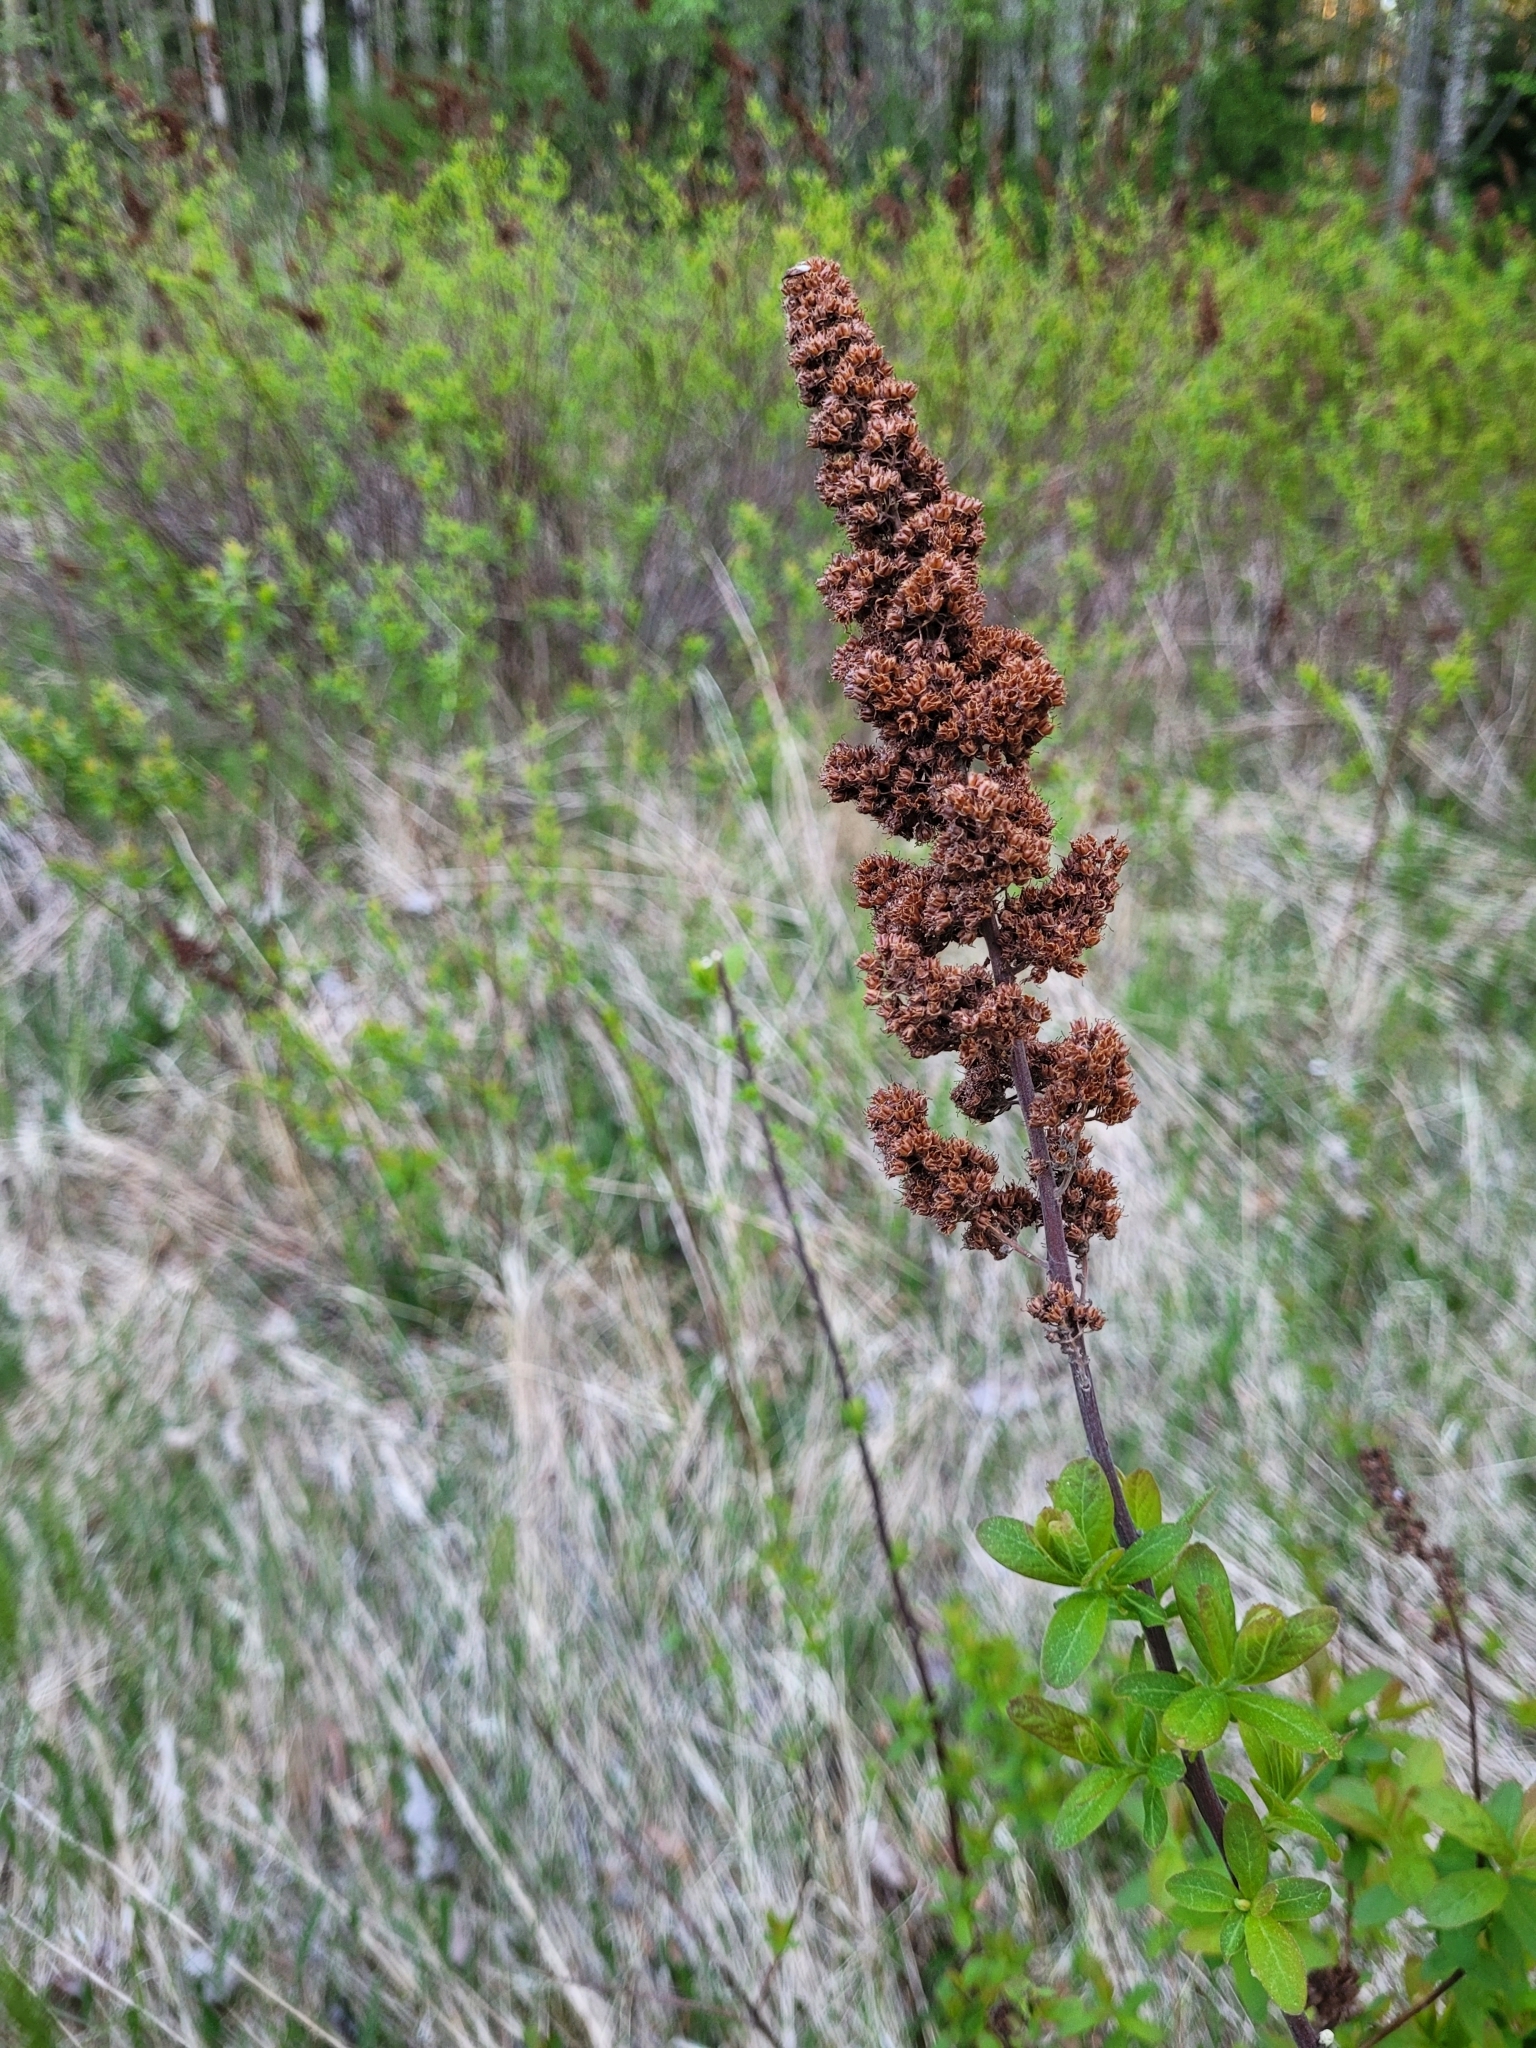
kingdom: Plantae
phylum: Tracheophyta
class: Magnoliopsida
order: Rosales
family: Rosaceae
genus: Spiraea
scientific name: Spiraea douglasii
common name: Steeplebush
